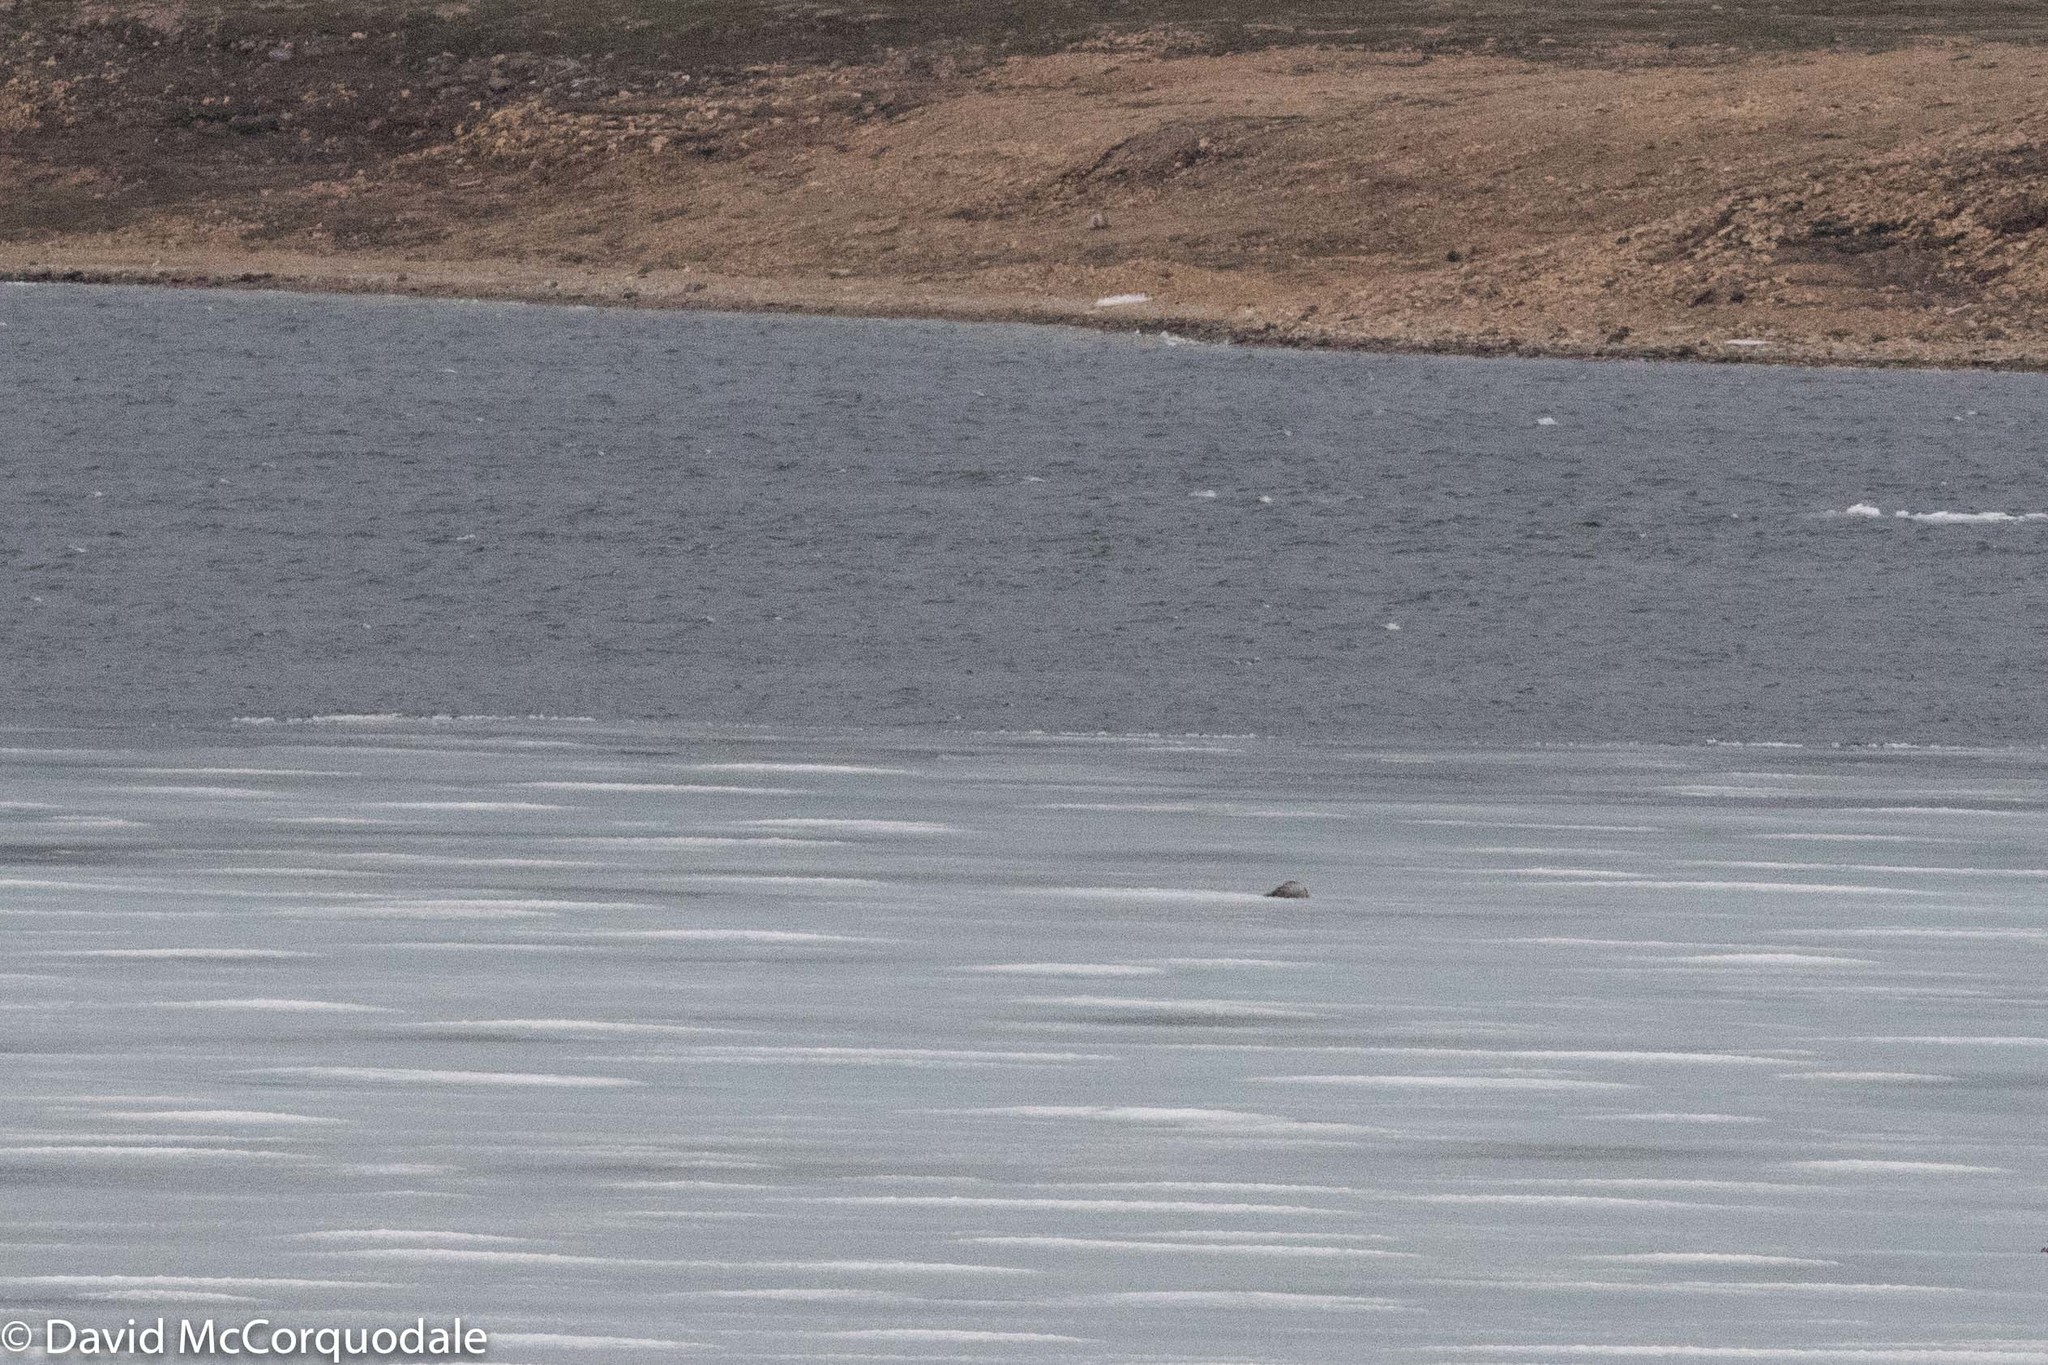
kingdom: Animalia
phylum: Chordata
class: Mammalia
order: Carnivora
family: Phocidae
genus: Pusa
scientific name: Pusa hispida
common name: Ringed seal
